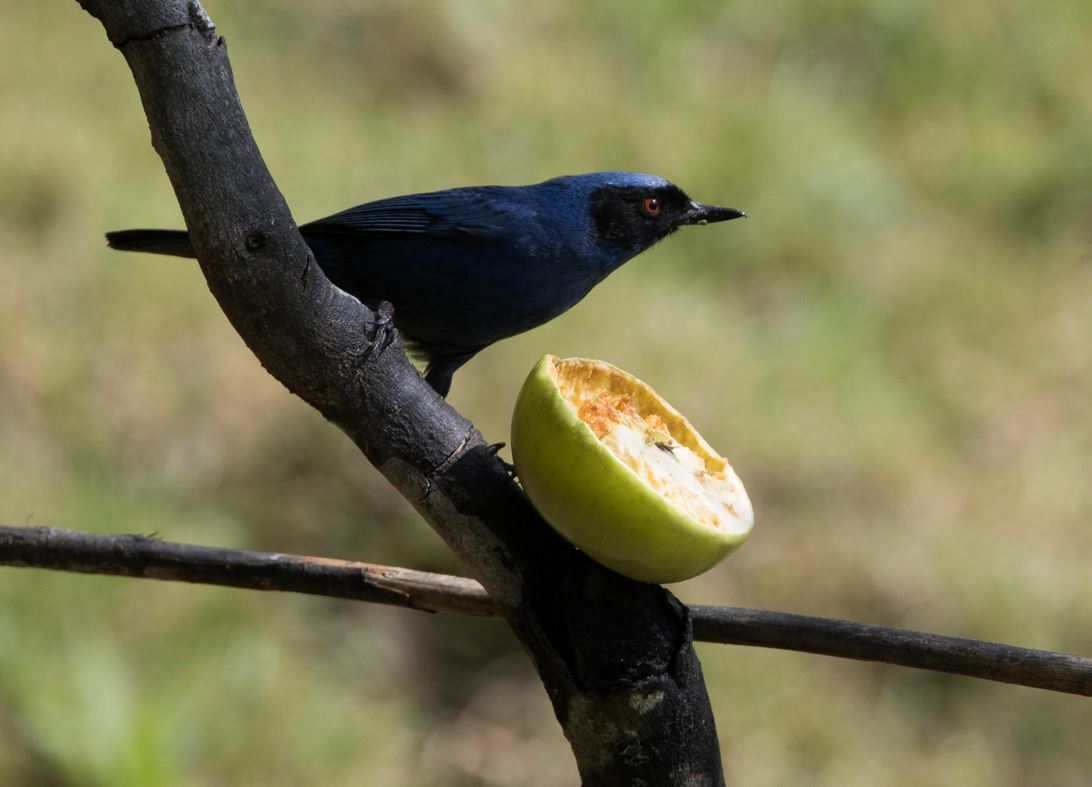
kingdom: Animalia
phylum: Chordata
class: Aves
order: Passeriformes
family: Thraupidae
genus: Diglossa
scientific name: Diglossa cyanea
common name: Masked flowerpiercer
